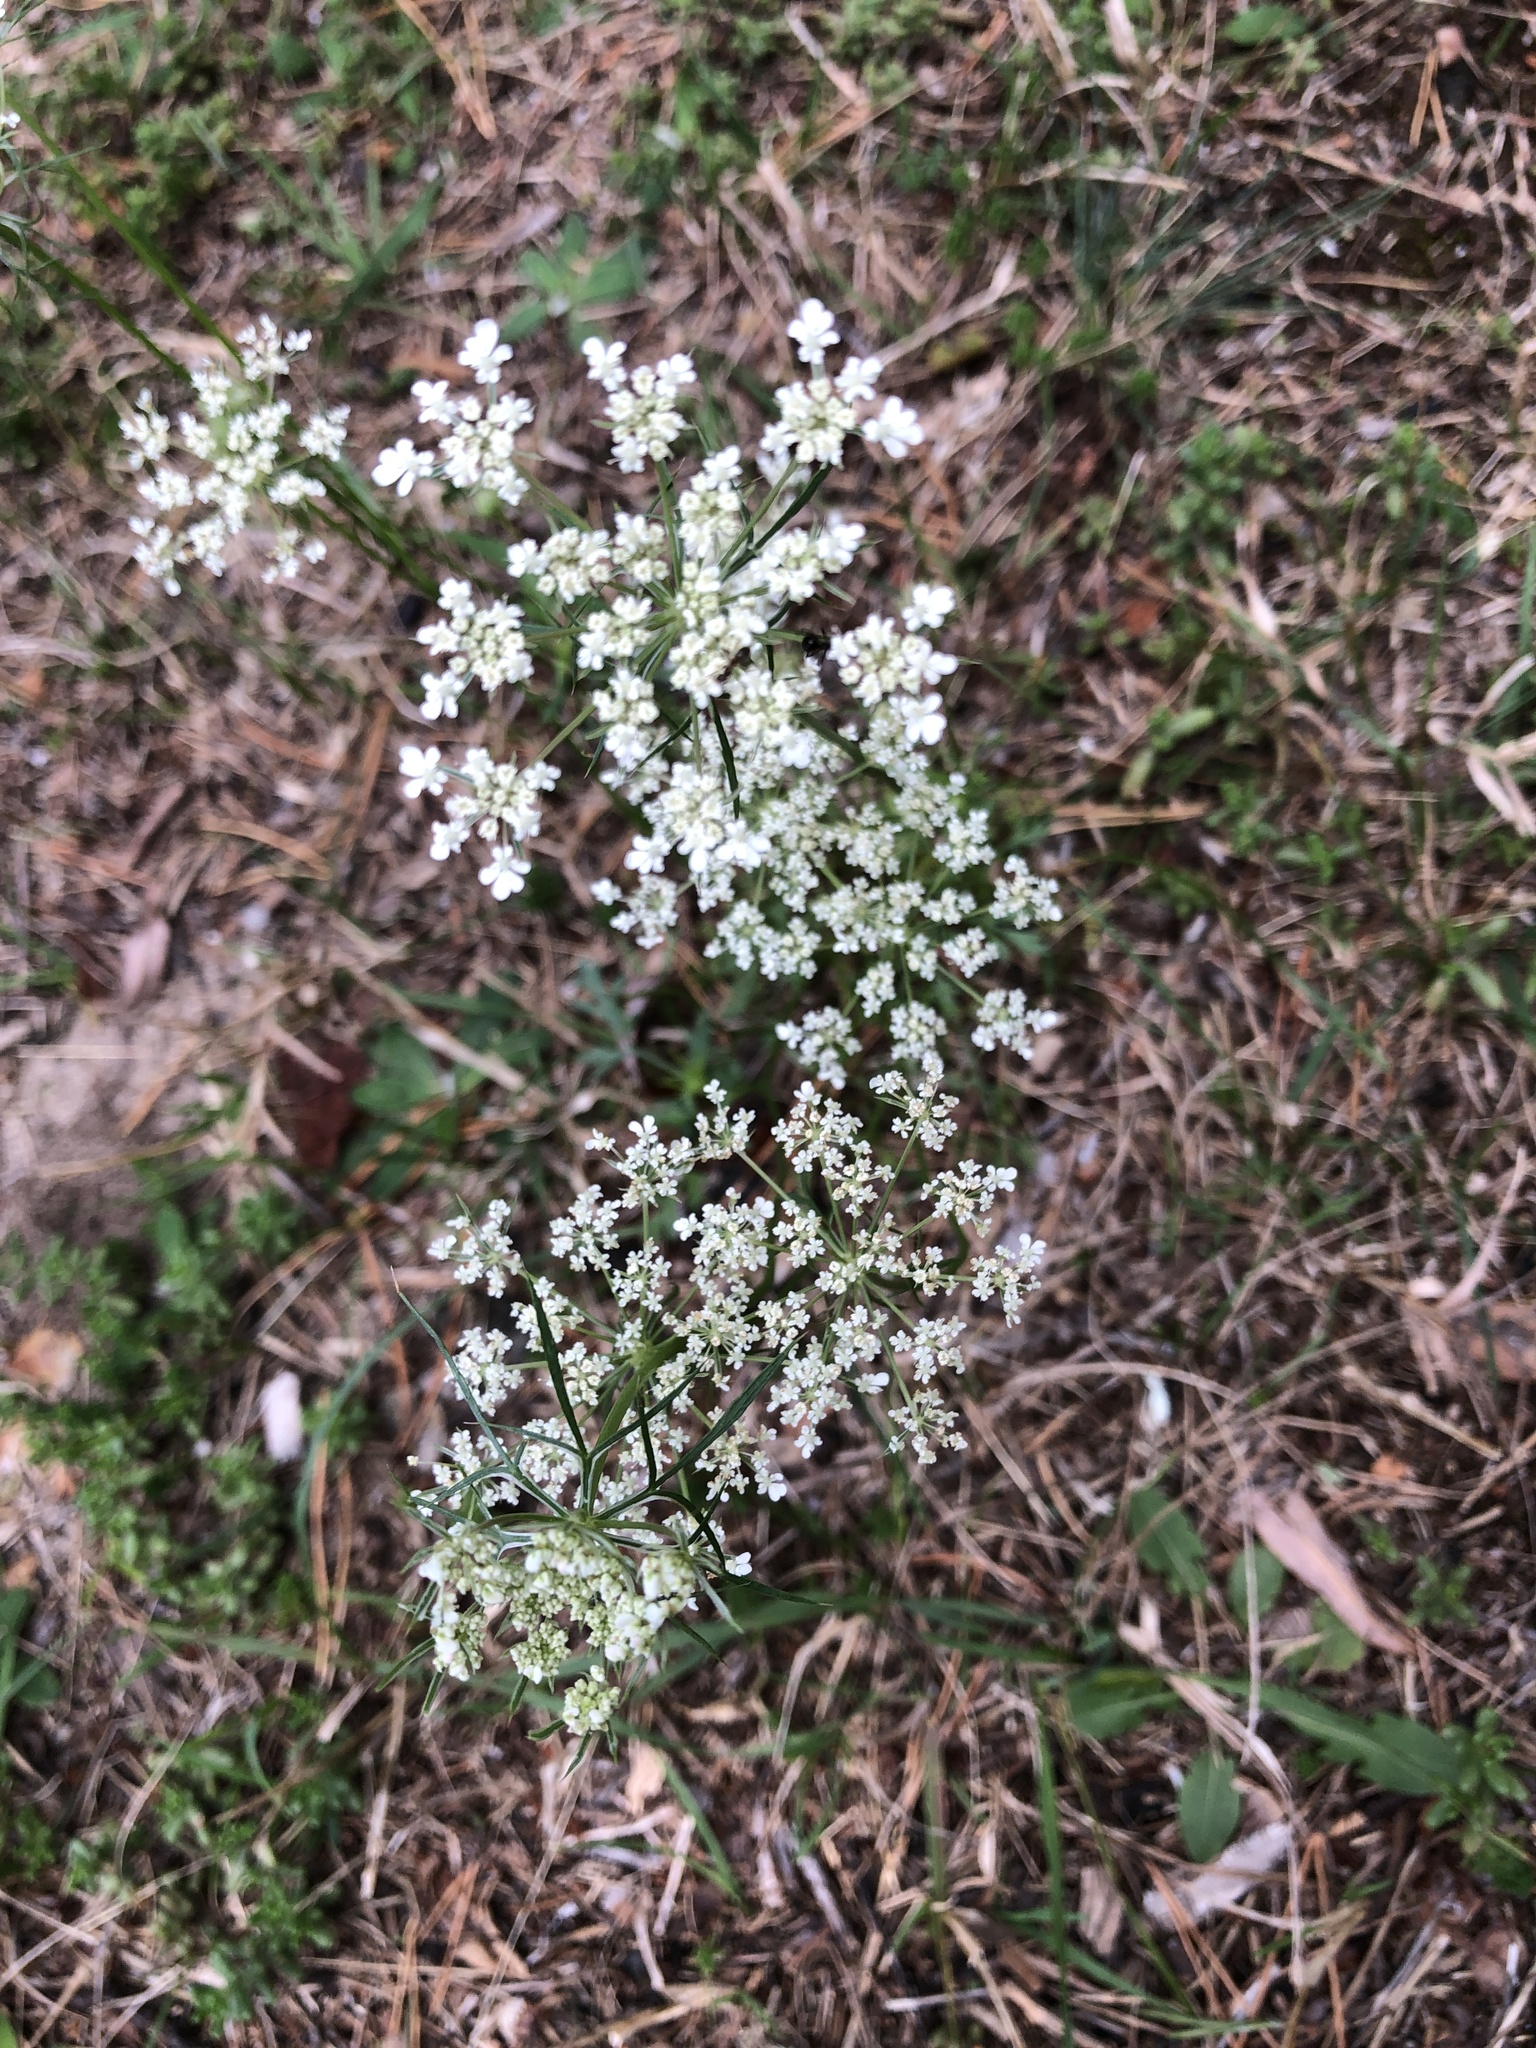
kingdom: Plantae
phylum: Tracheophyta
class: Magnoliopsida
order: Apiales
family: Apiaceae
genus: Daucus
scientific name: Daucus carota
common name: Wild carrot
